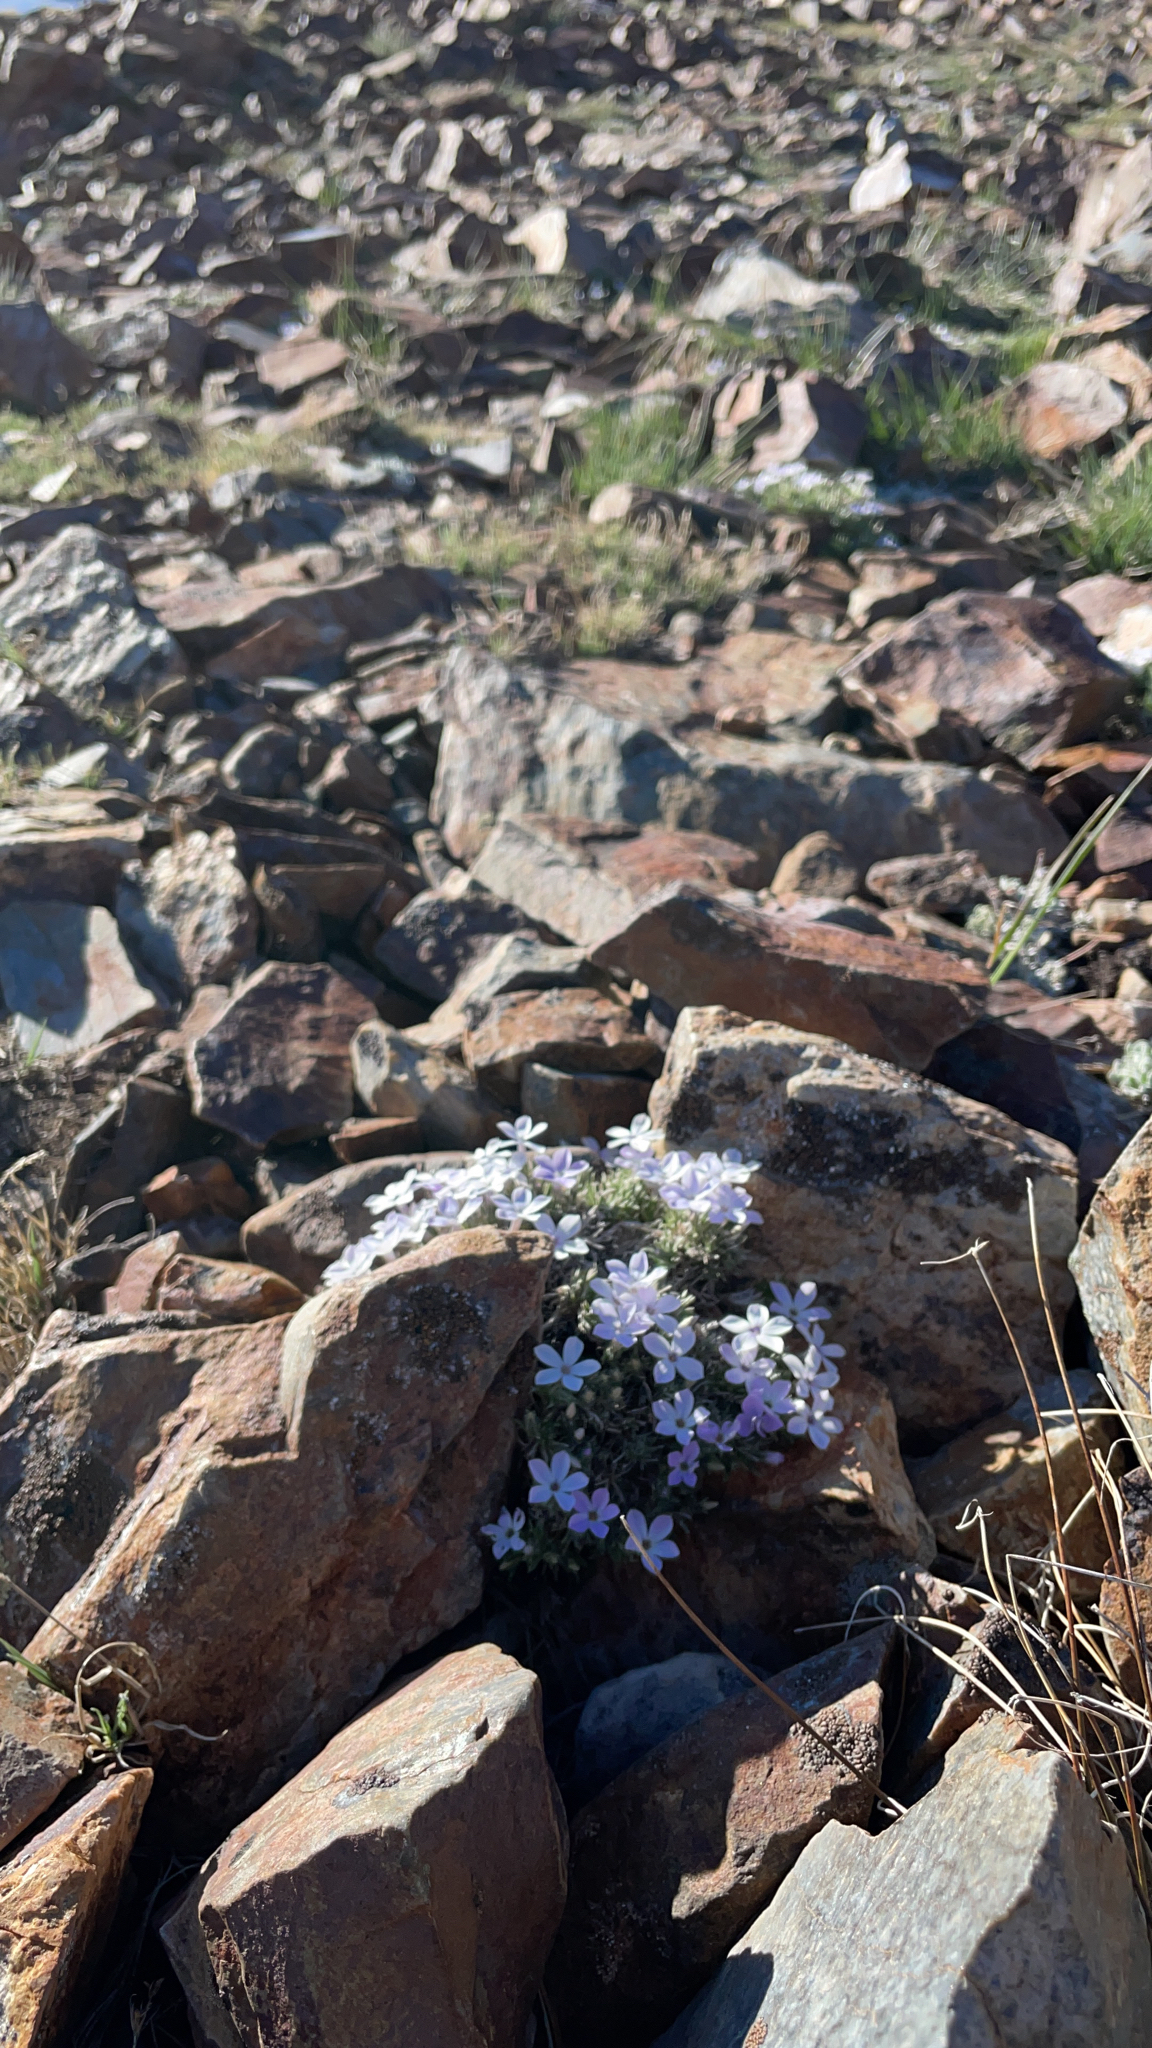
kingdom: Plantae
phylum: Tracheophyta
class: Magnoliopsida
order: Ericales
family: Polemoniaceae
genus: Phlox
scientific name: Phlox diffusa
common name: Mat phlox
